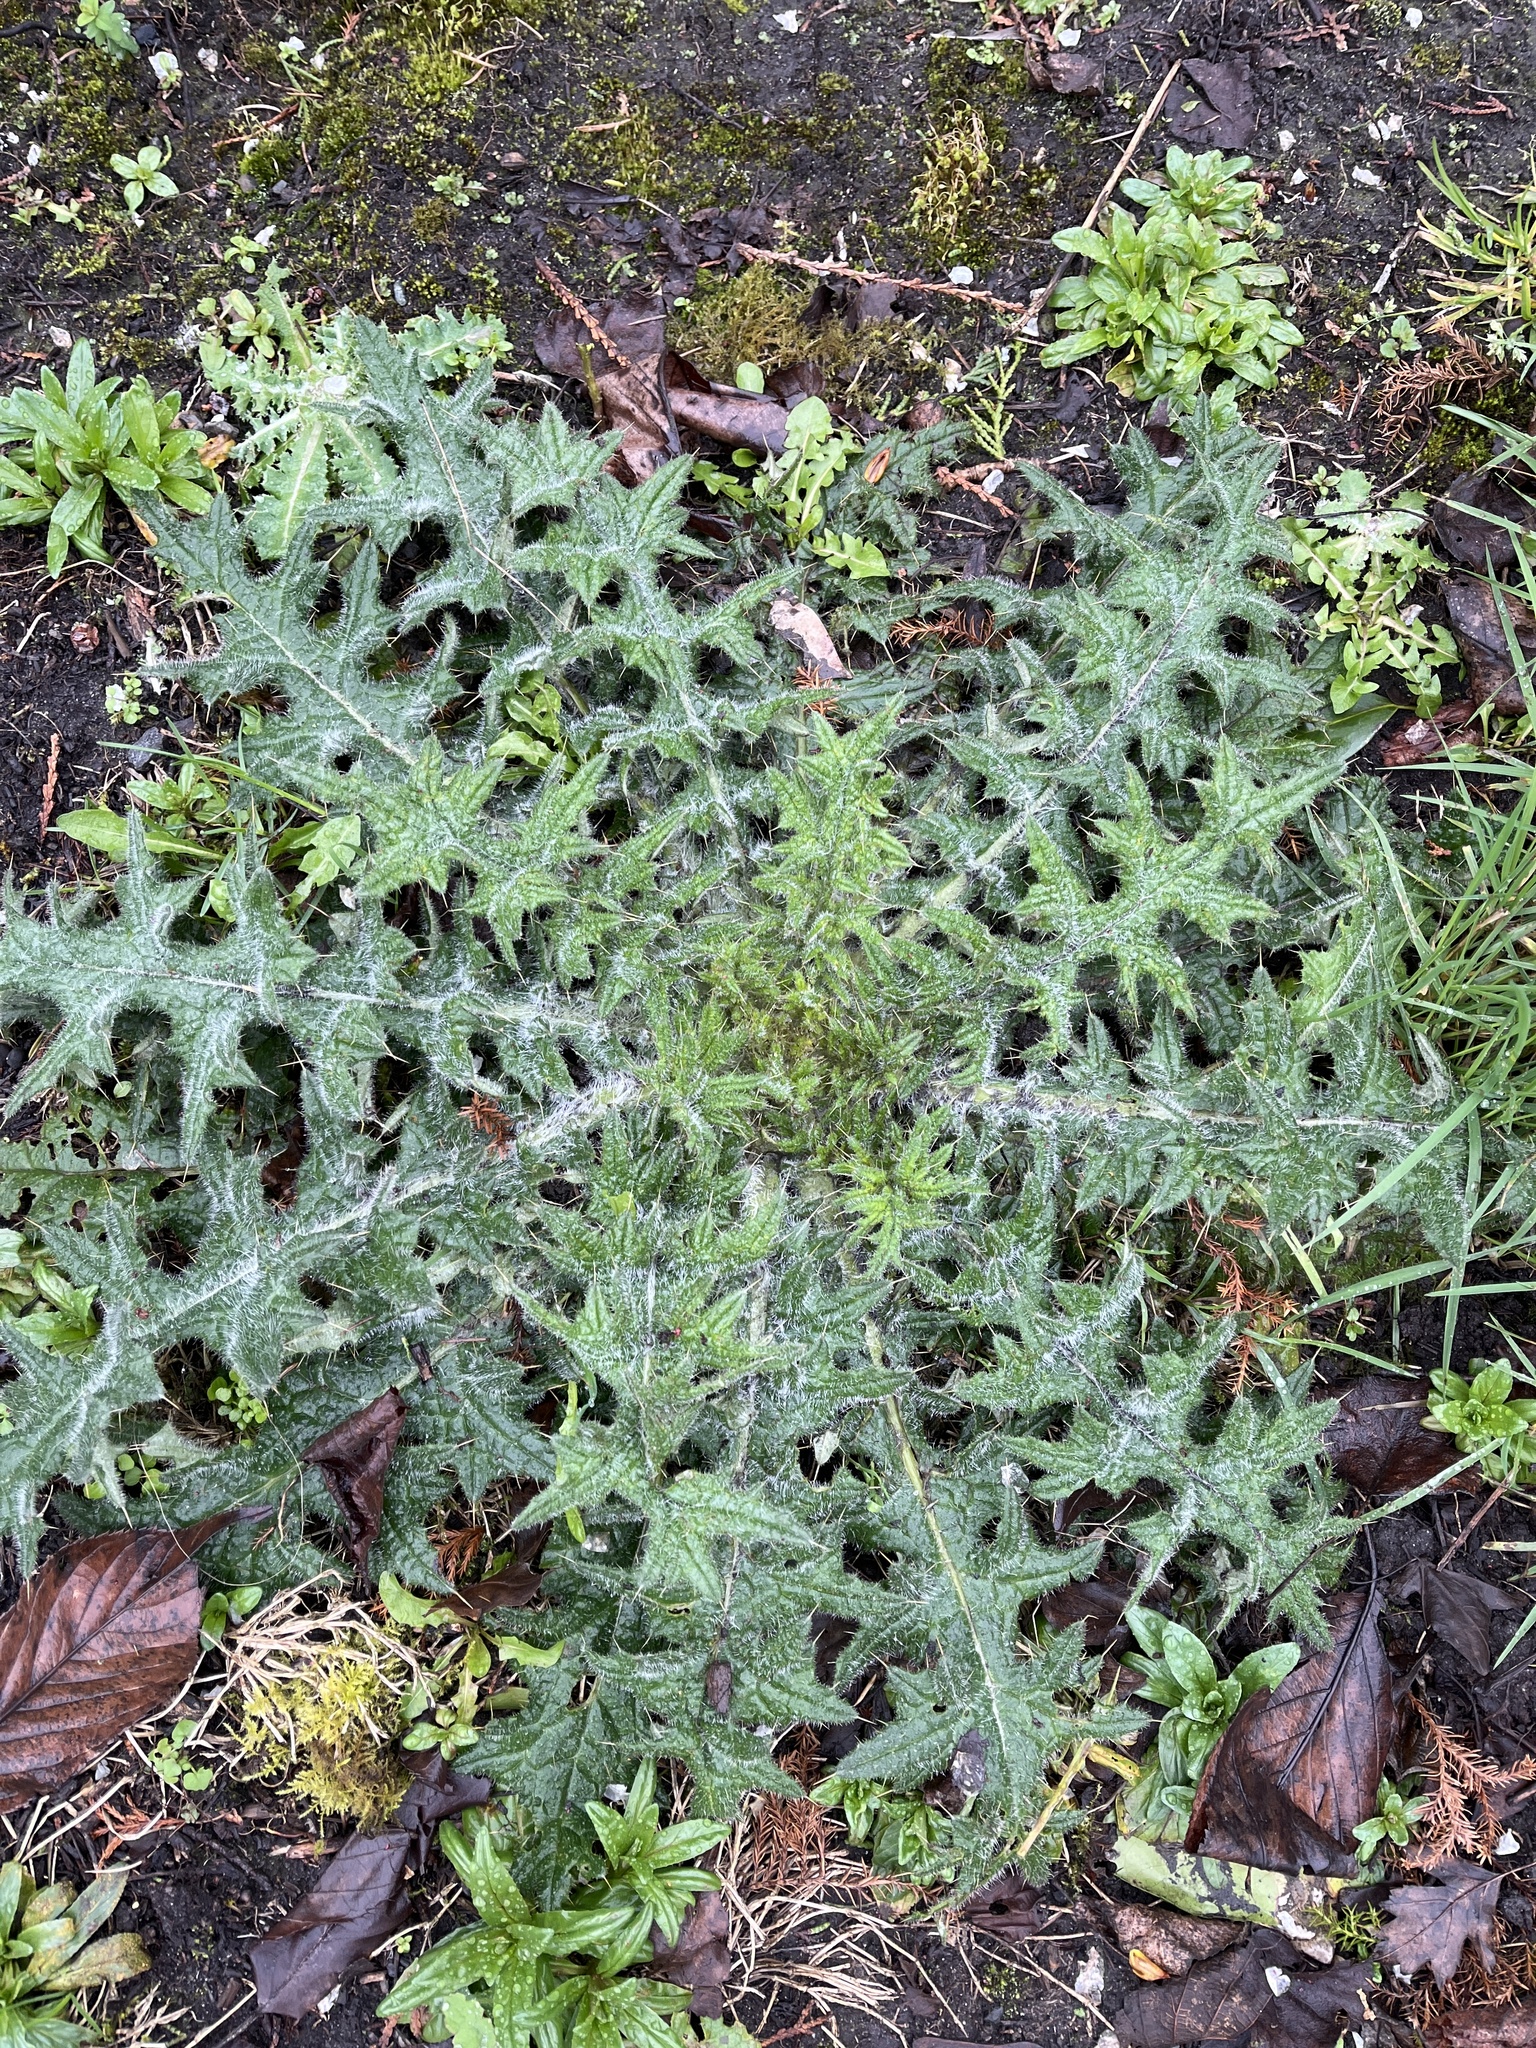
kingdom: Plantae
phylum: Tracheophyta
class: Magnoliopsida
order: Asterales
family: Asteraceae
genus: Cirsium
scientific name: Cirsium vulgare
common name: Bull thistle
